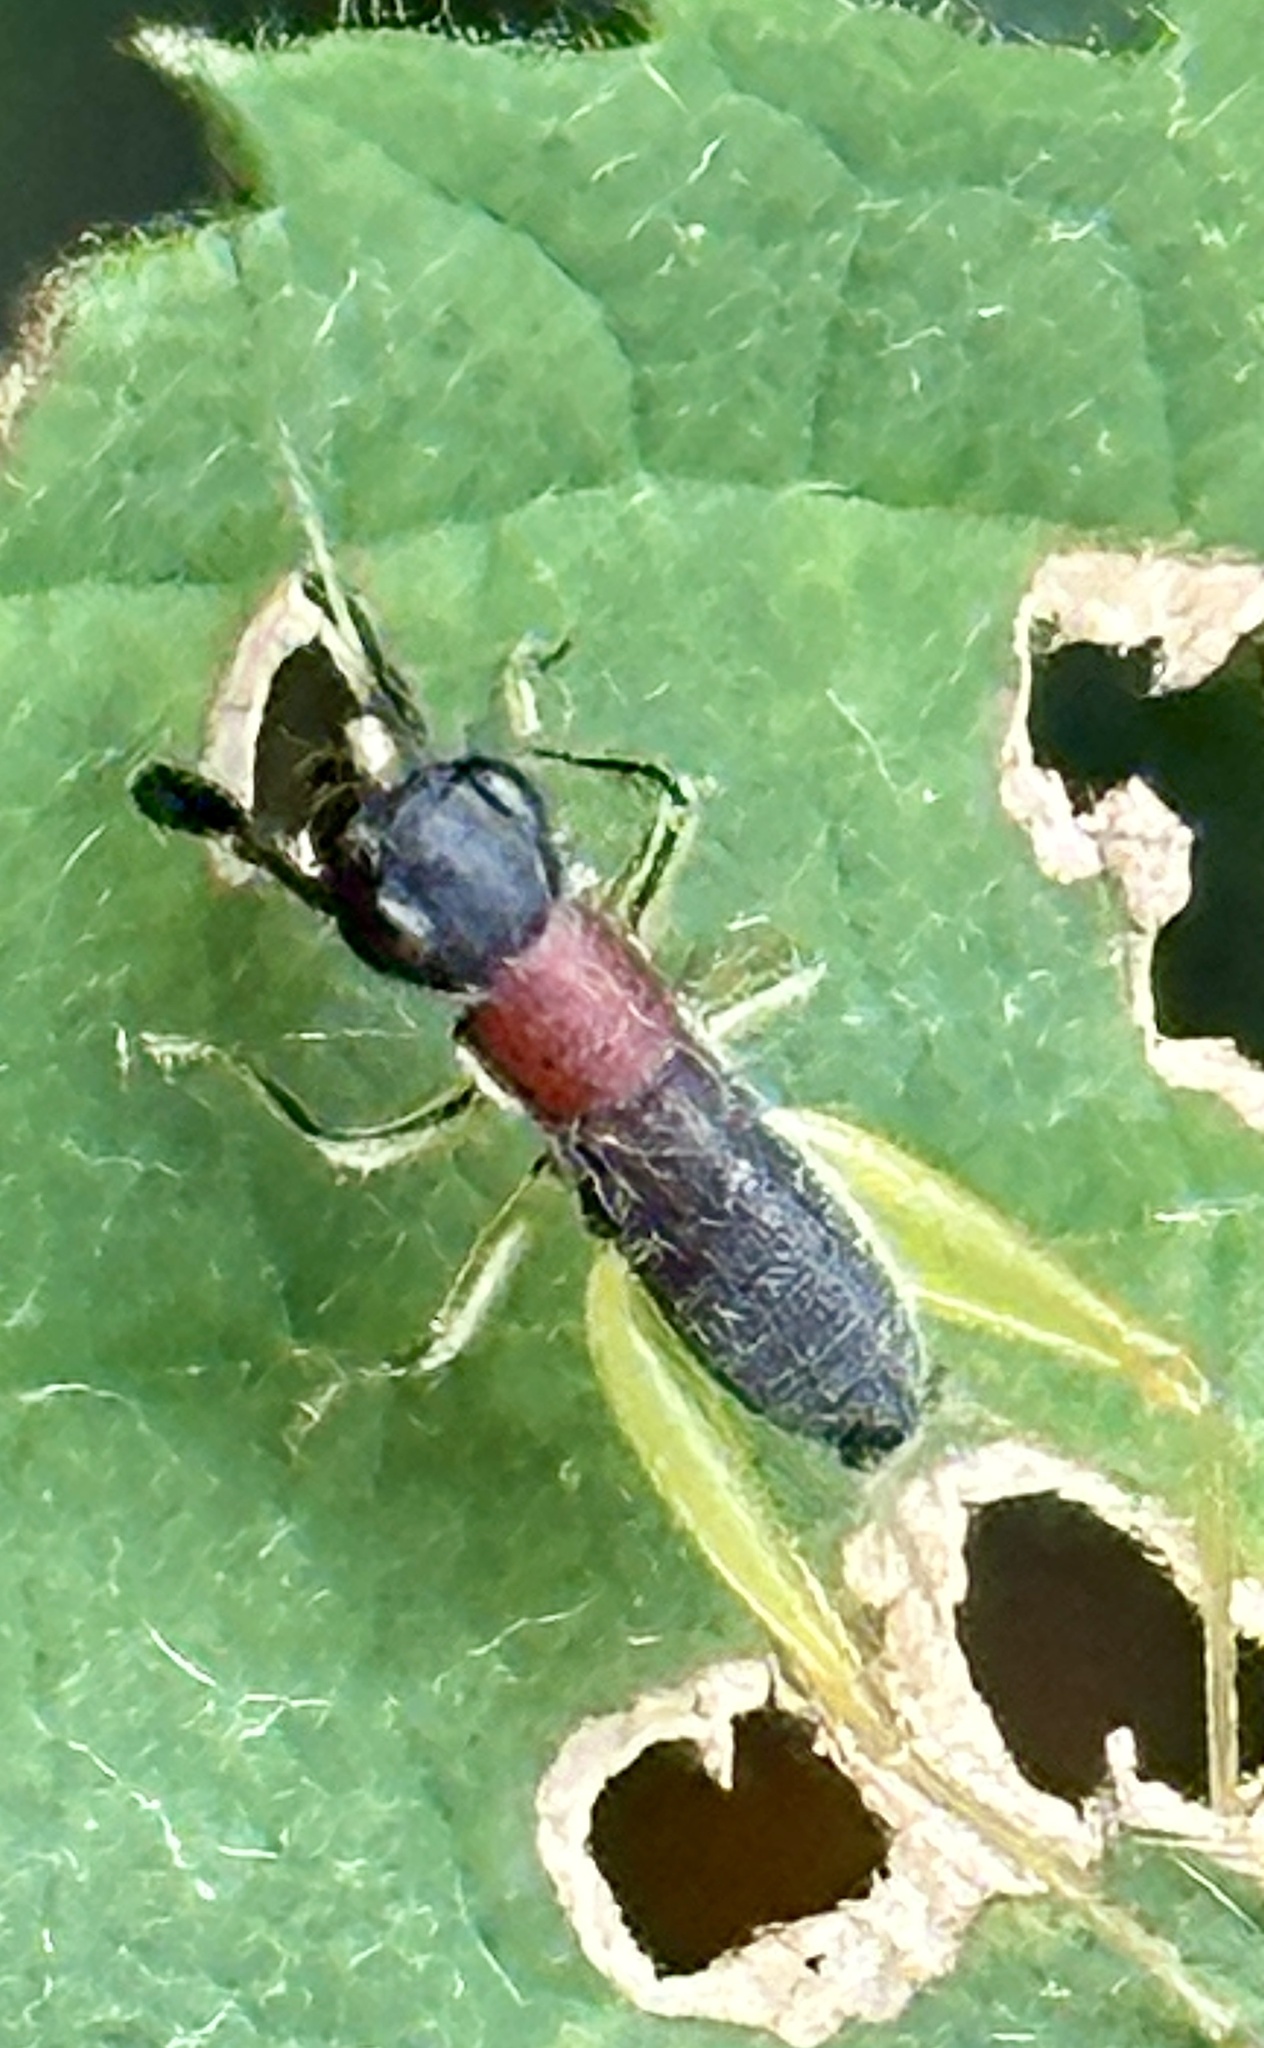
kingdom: Animalia
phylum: Arthropoda
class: Insecta
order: Orthoptera
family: Trigonidiidae
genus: Phyllopalpus
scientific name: Phyllopalpus pulchellus
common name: Handsome trig
